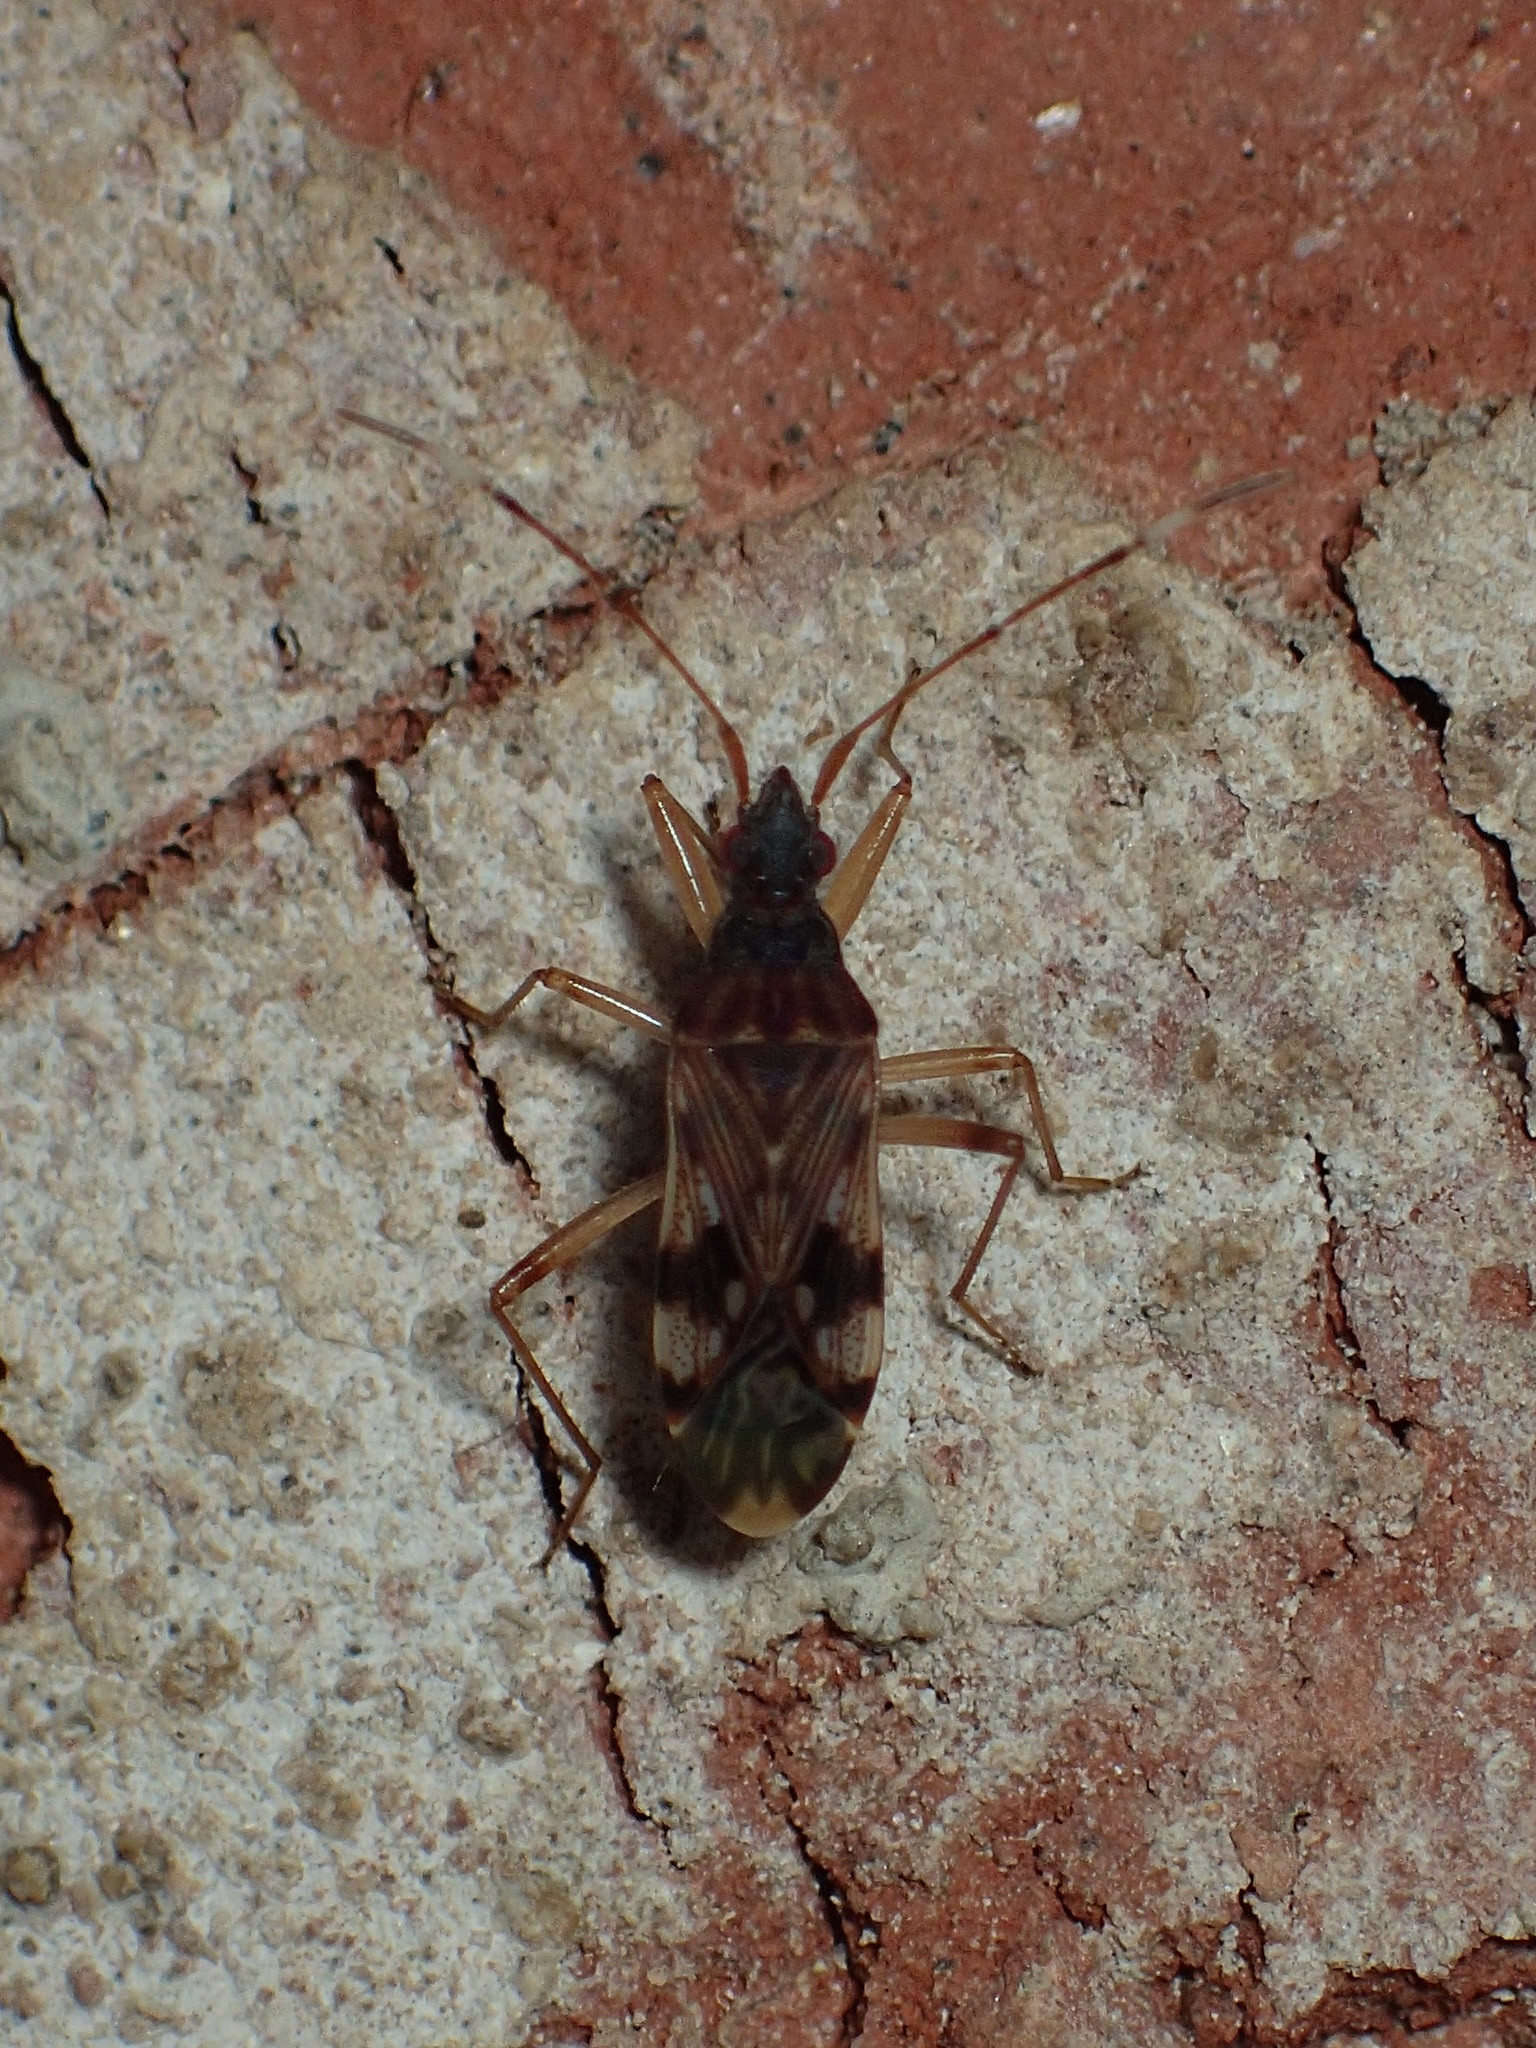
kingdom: Animalia
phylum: Arthropoda
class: Insecta
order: Hemiptera
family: Rhyparochromidae
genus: Ozophora
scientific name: Ozophora picturata
